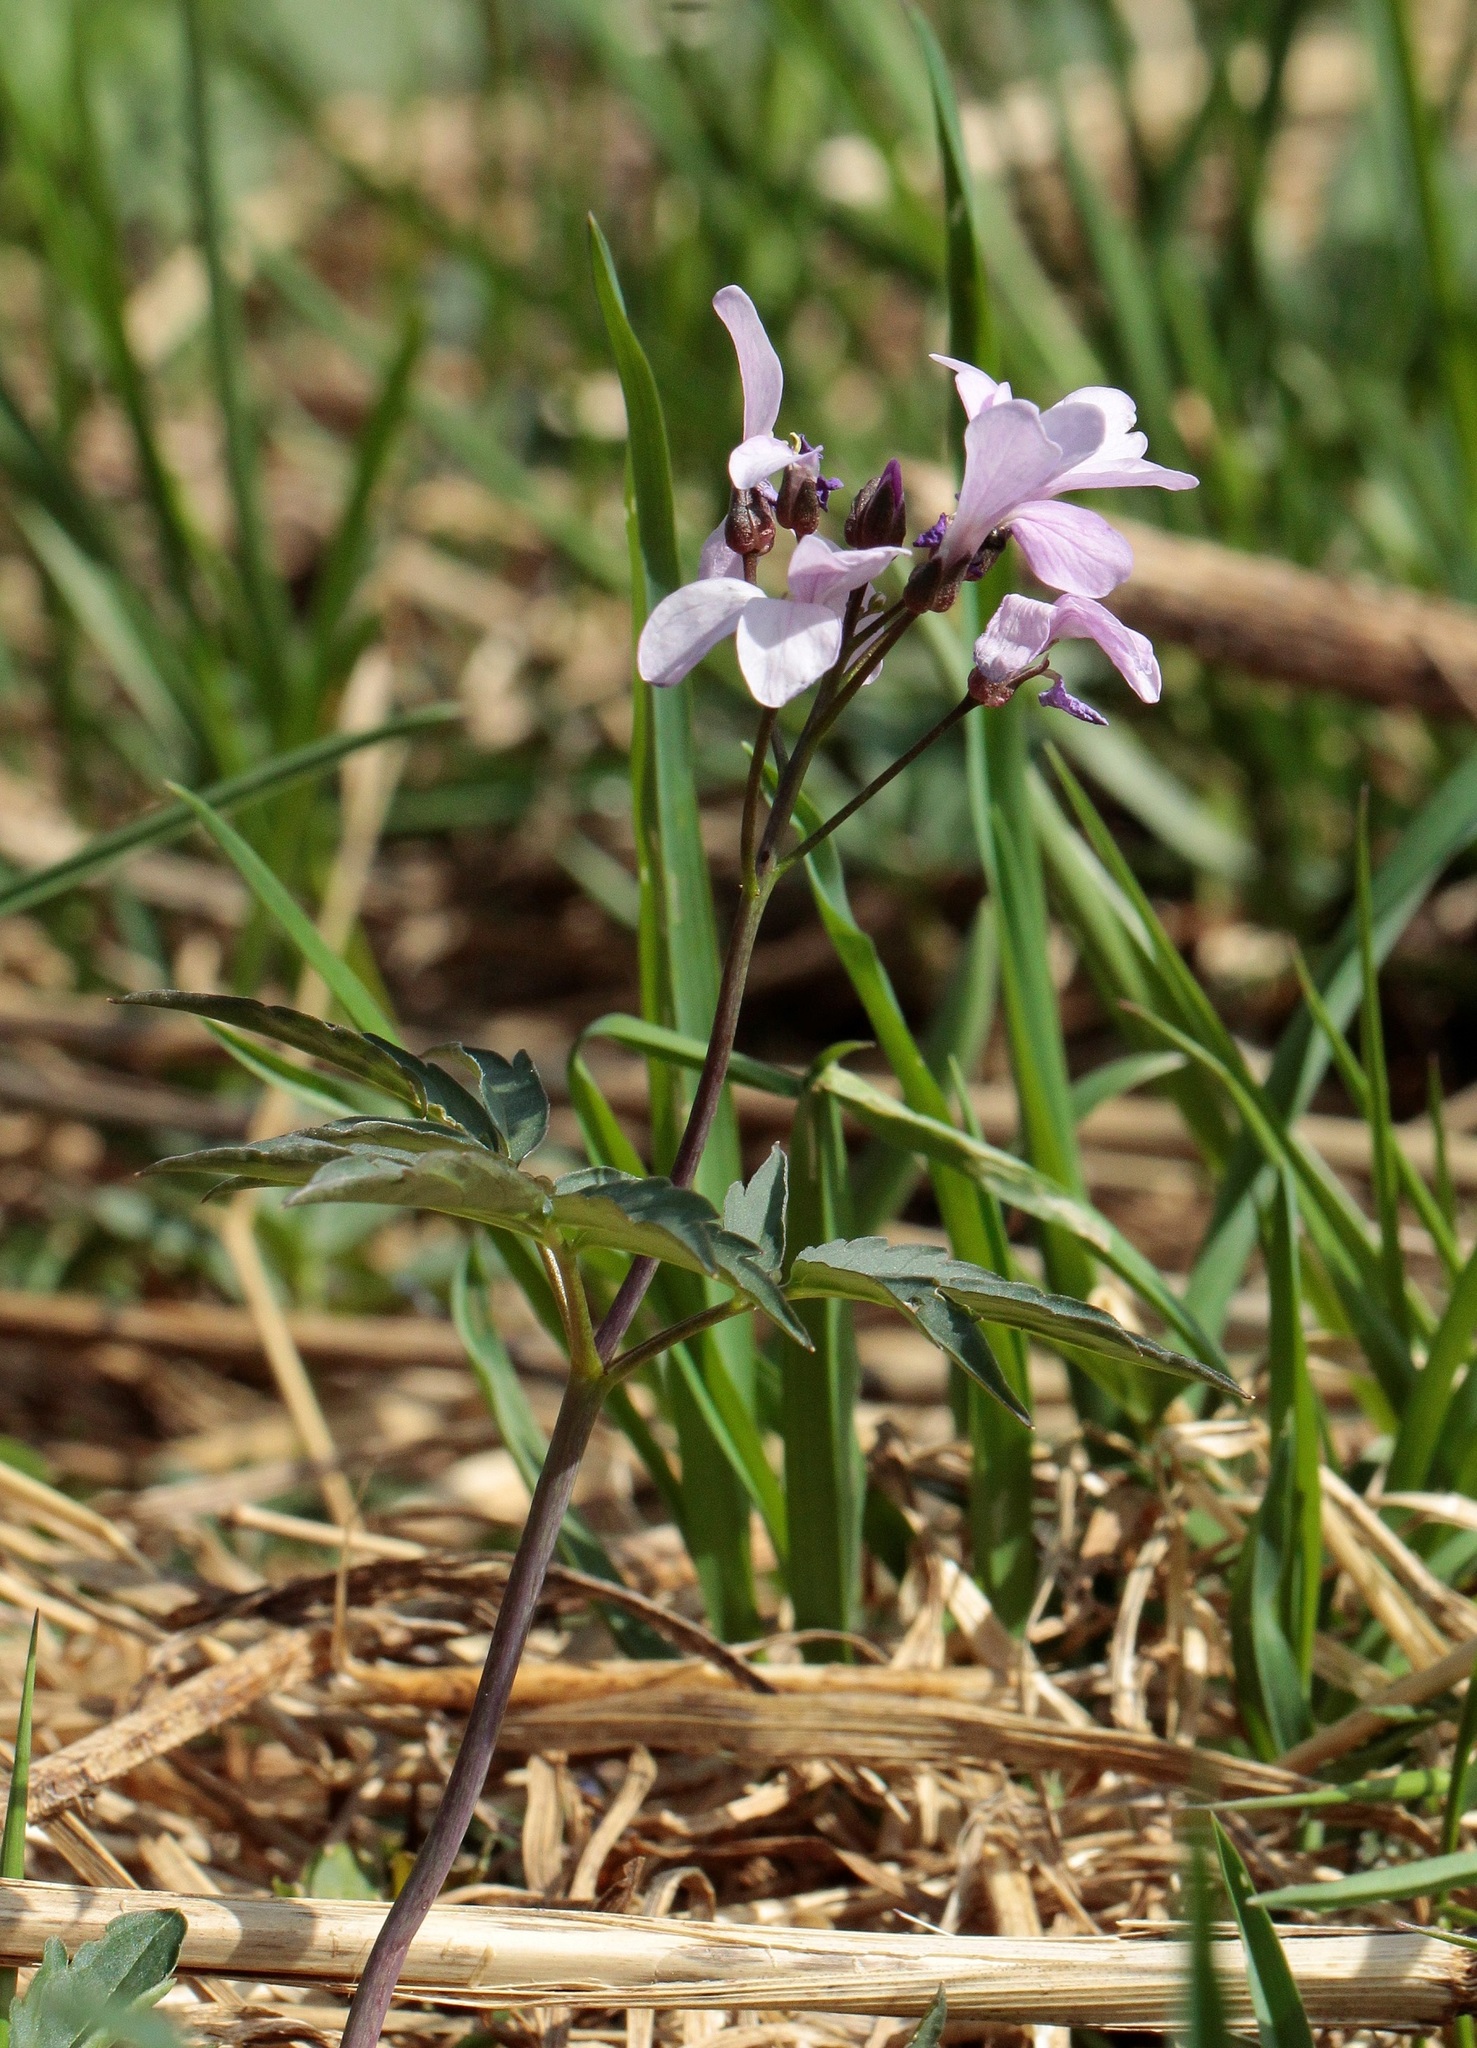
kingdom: Plantae
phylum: Tracheophyta
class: Magnoliopsida
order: Brassicales
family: Brassicaceae
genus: Cardamine
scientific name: Cardamine quinquefolia
